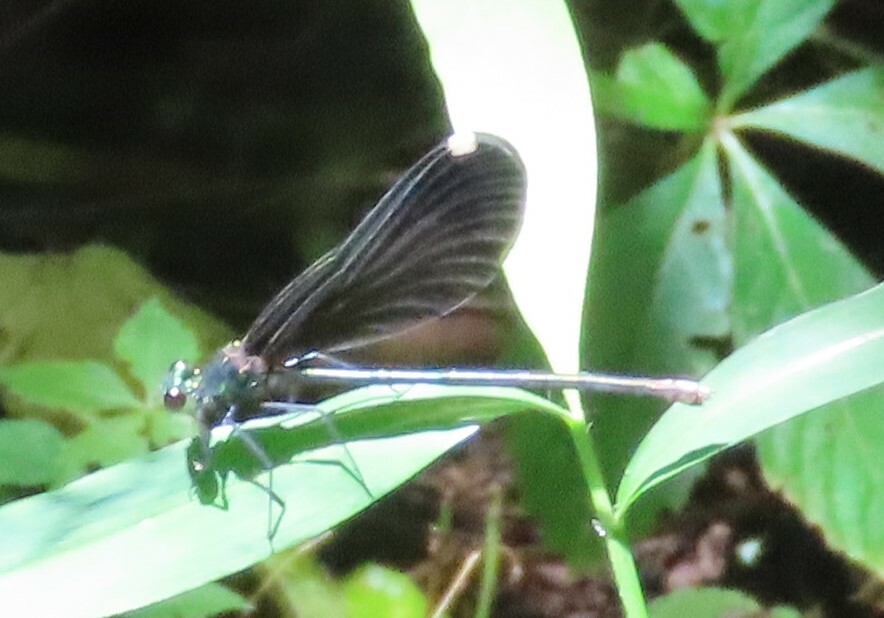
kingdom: Animalia
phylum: Arthropoda
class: Insecta
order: Odonata
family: Calopterygidae
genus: Calopteryx
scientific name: Calopteryx maculata
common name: Ebony jewelwing
